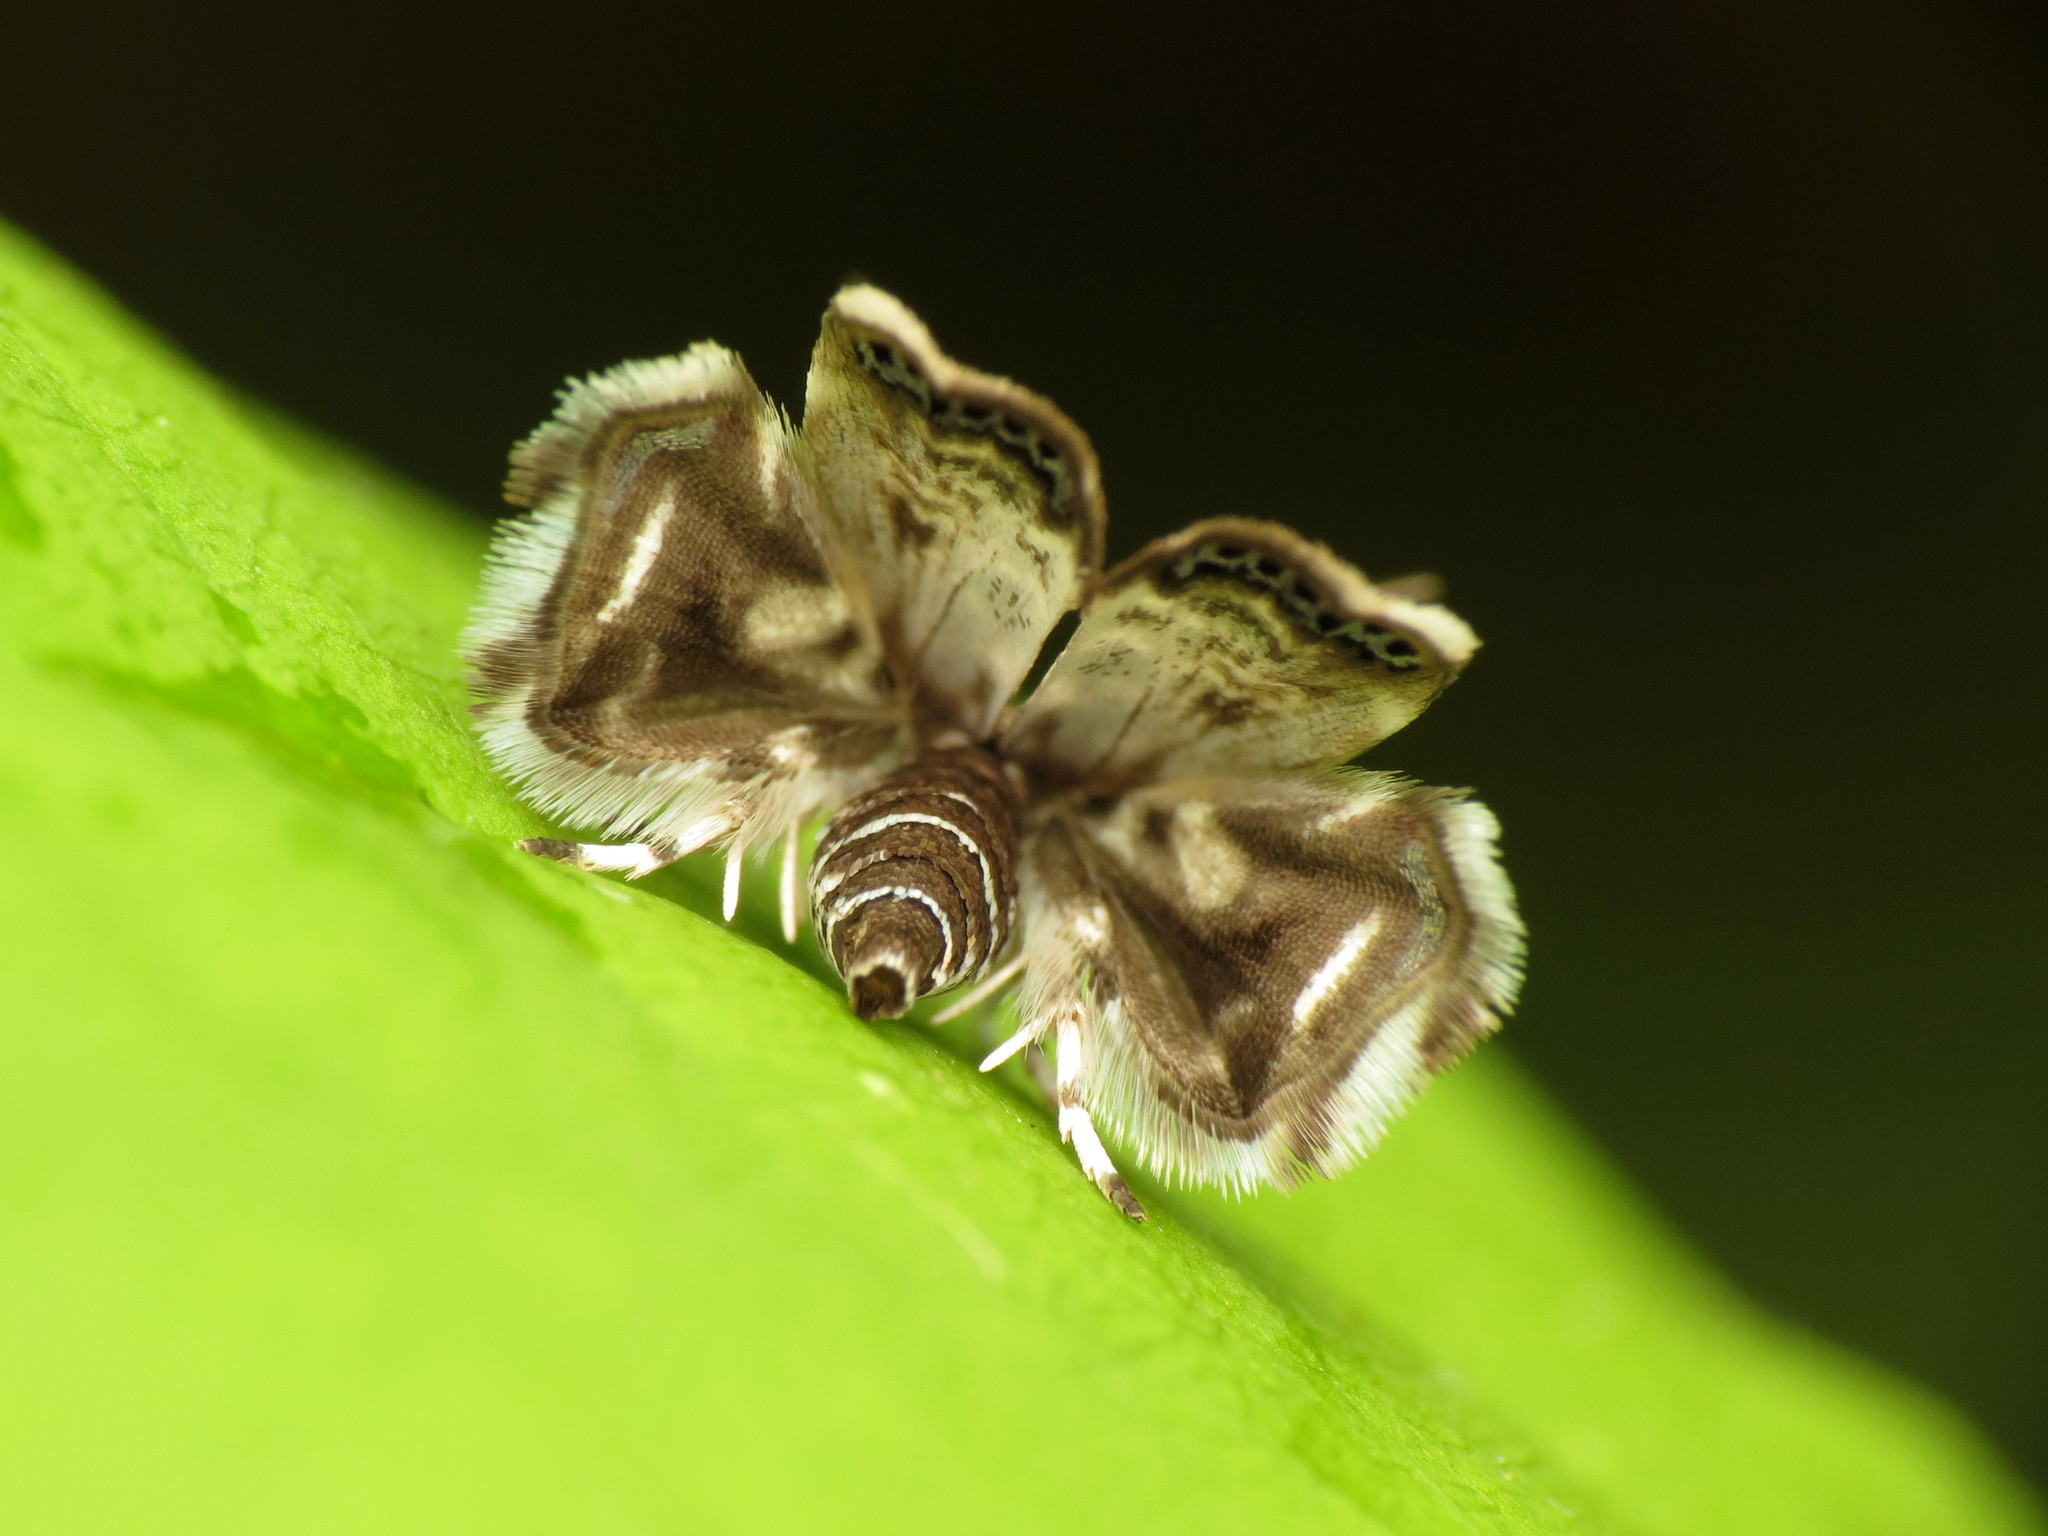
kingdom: Animalia
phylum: Arthropoda
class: Insecta
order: Lepidoptera
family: Choreutidae
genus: Brenthia
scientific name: Brenthia pavonacella
